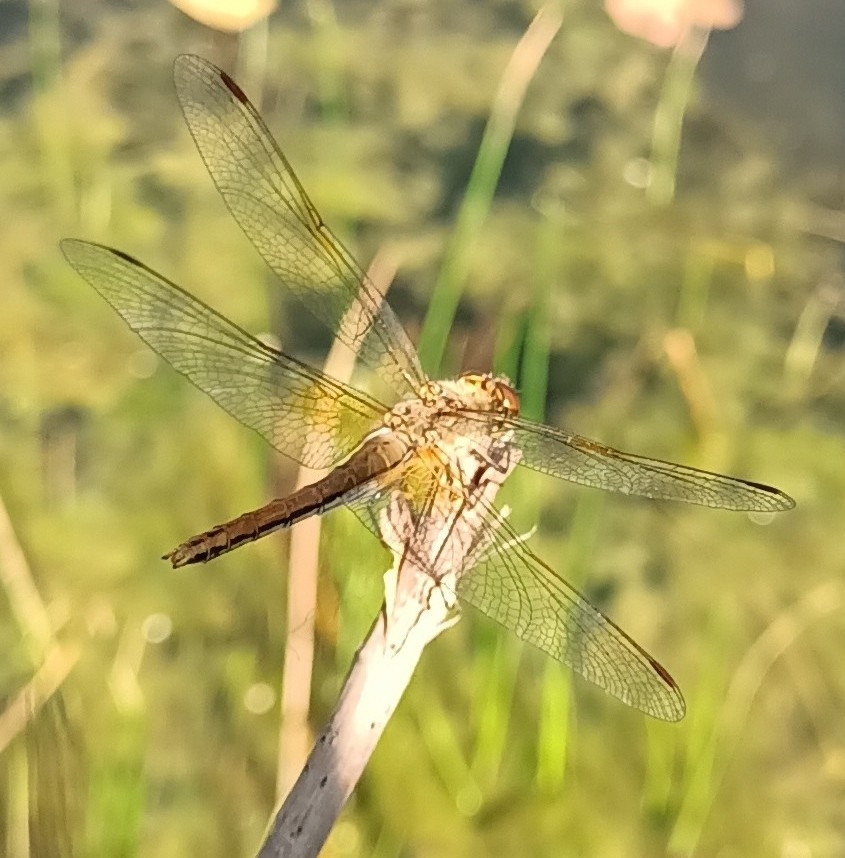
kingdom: Animalia
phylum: Arthropoda
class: Insecta
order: Odonata
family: Libellulidae
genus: Sympetrum
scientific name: Sympetrum flaveolum
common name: Yellow-winged darter
